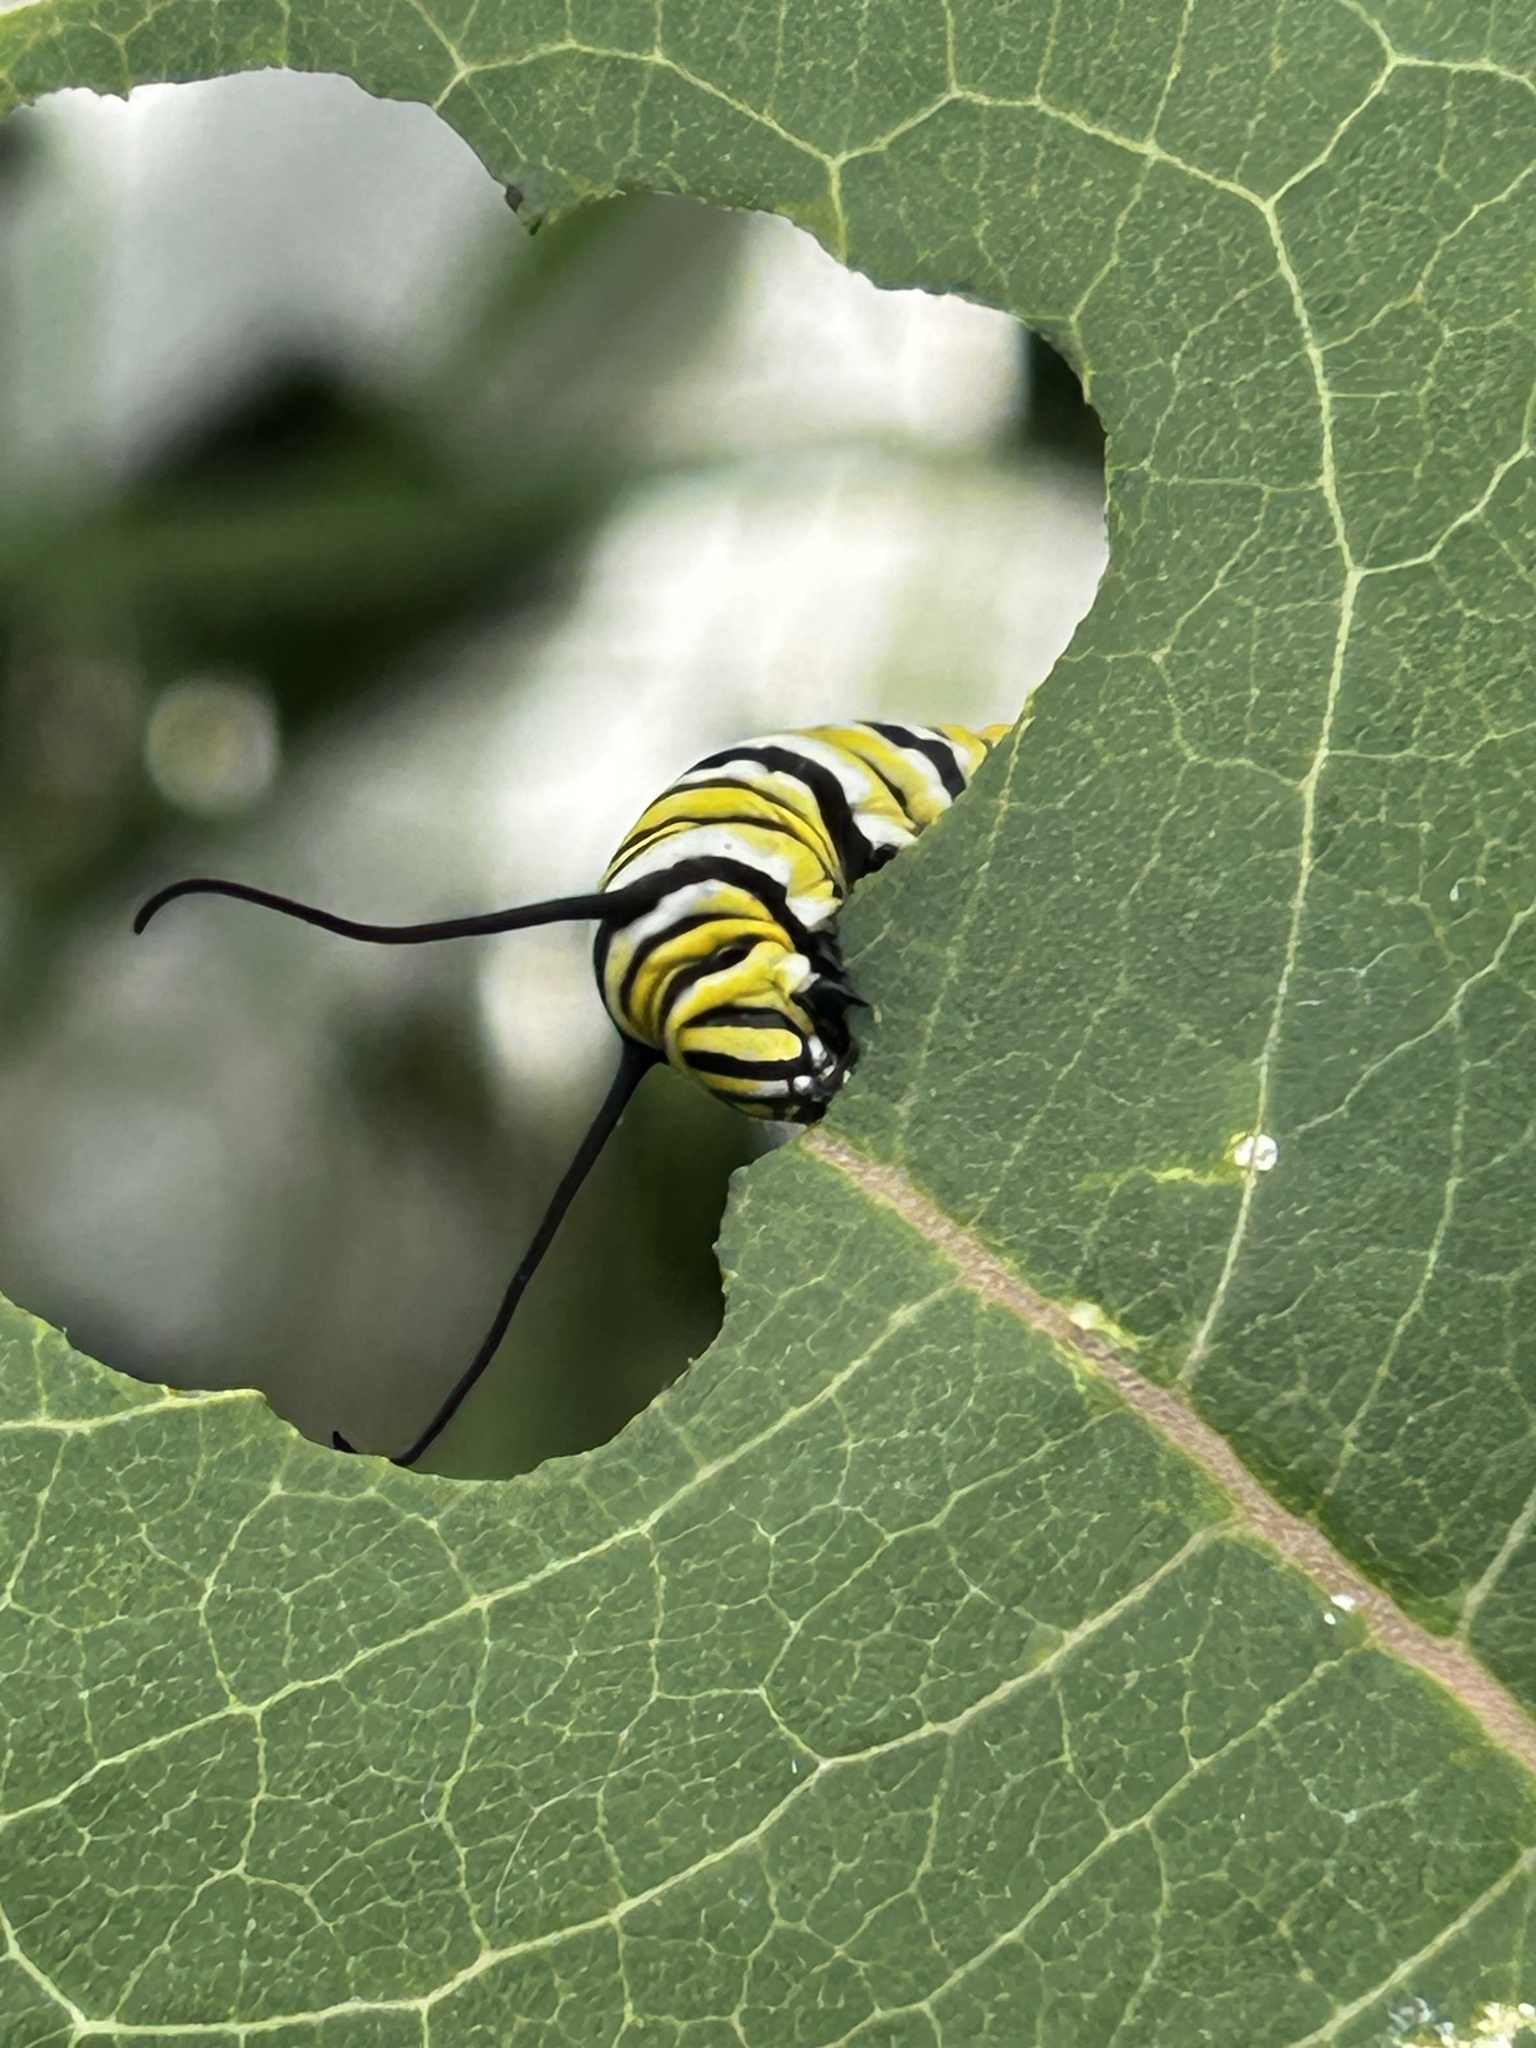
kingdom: Animalia
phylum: Arthropoda
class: Insecta
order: Lepidoptera
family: Nymphalidae
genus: Danaus
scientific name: Danaus plexippus
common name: Monarch
